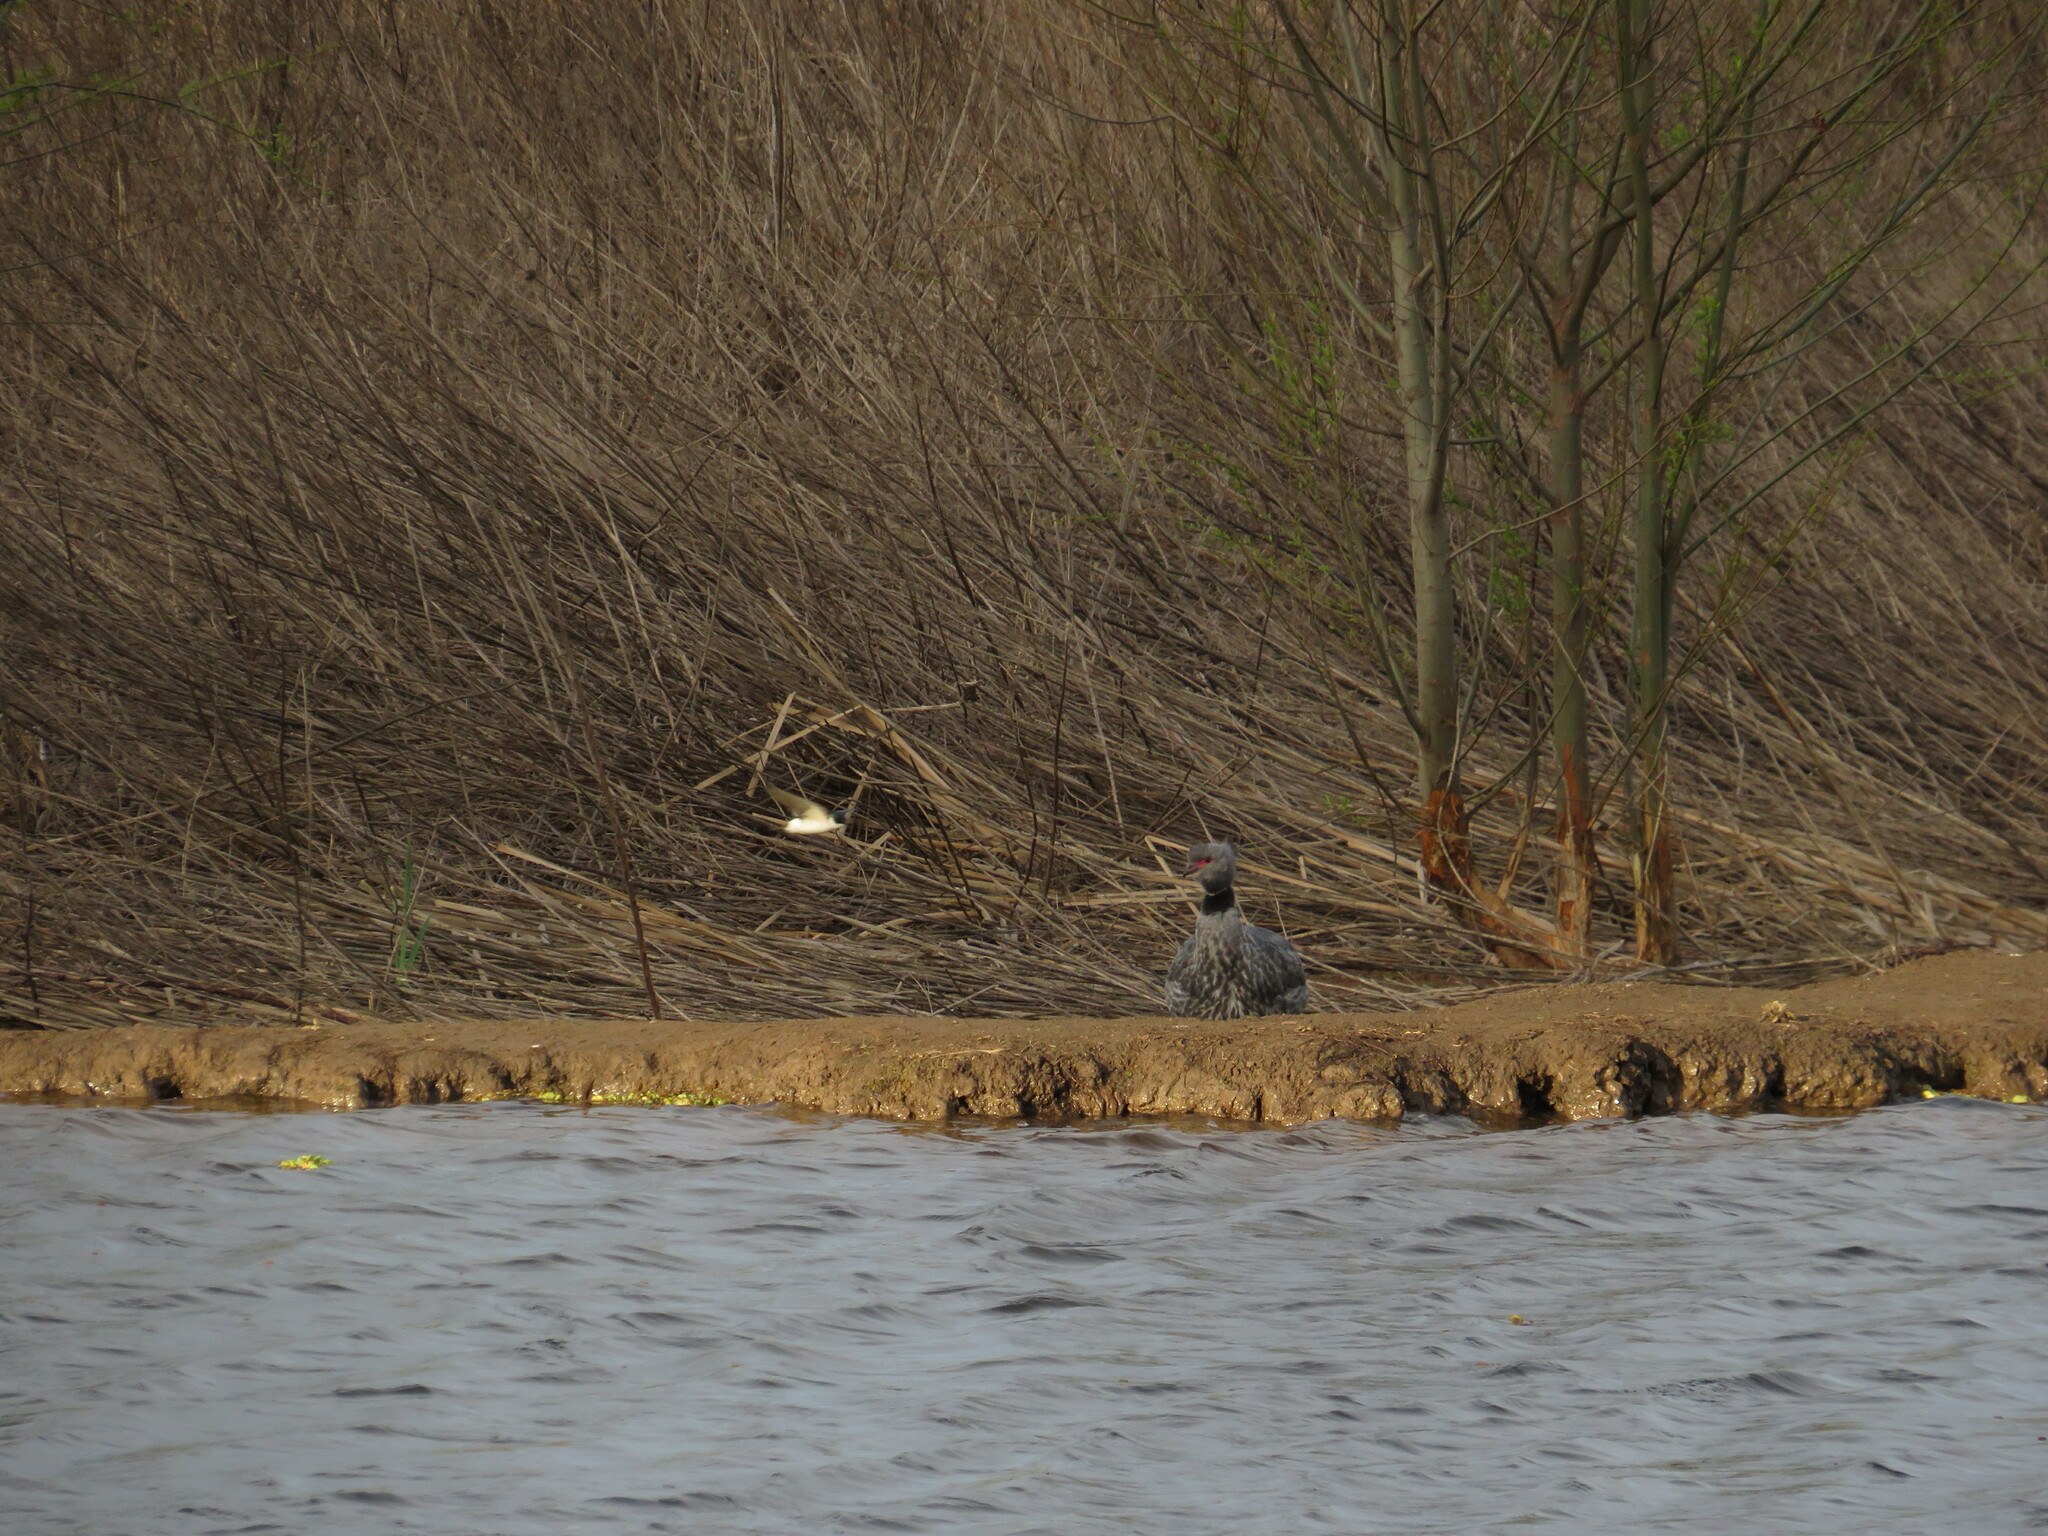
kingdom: Animalia
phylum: Chordata
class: Aves
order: Anseriformes
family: Anhimidae
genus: Chauna
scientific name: Chauna torquata
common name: Southern screamer
